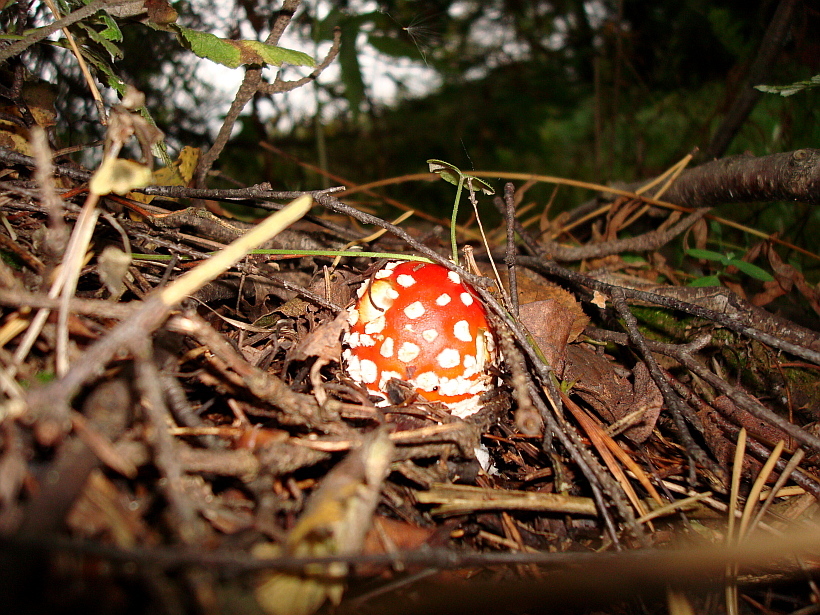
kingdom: Fungi
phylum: Basidiomycota
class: Agaricomycetes
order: Agaricales
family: Amanitaceae
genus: Amanita
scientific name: Amanita muscaria
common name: Fly agaric
